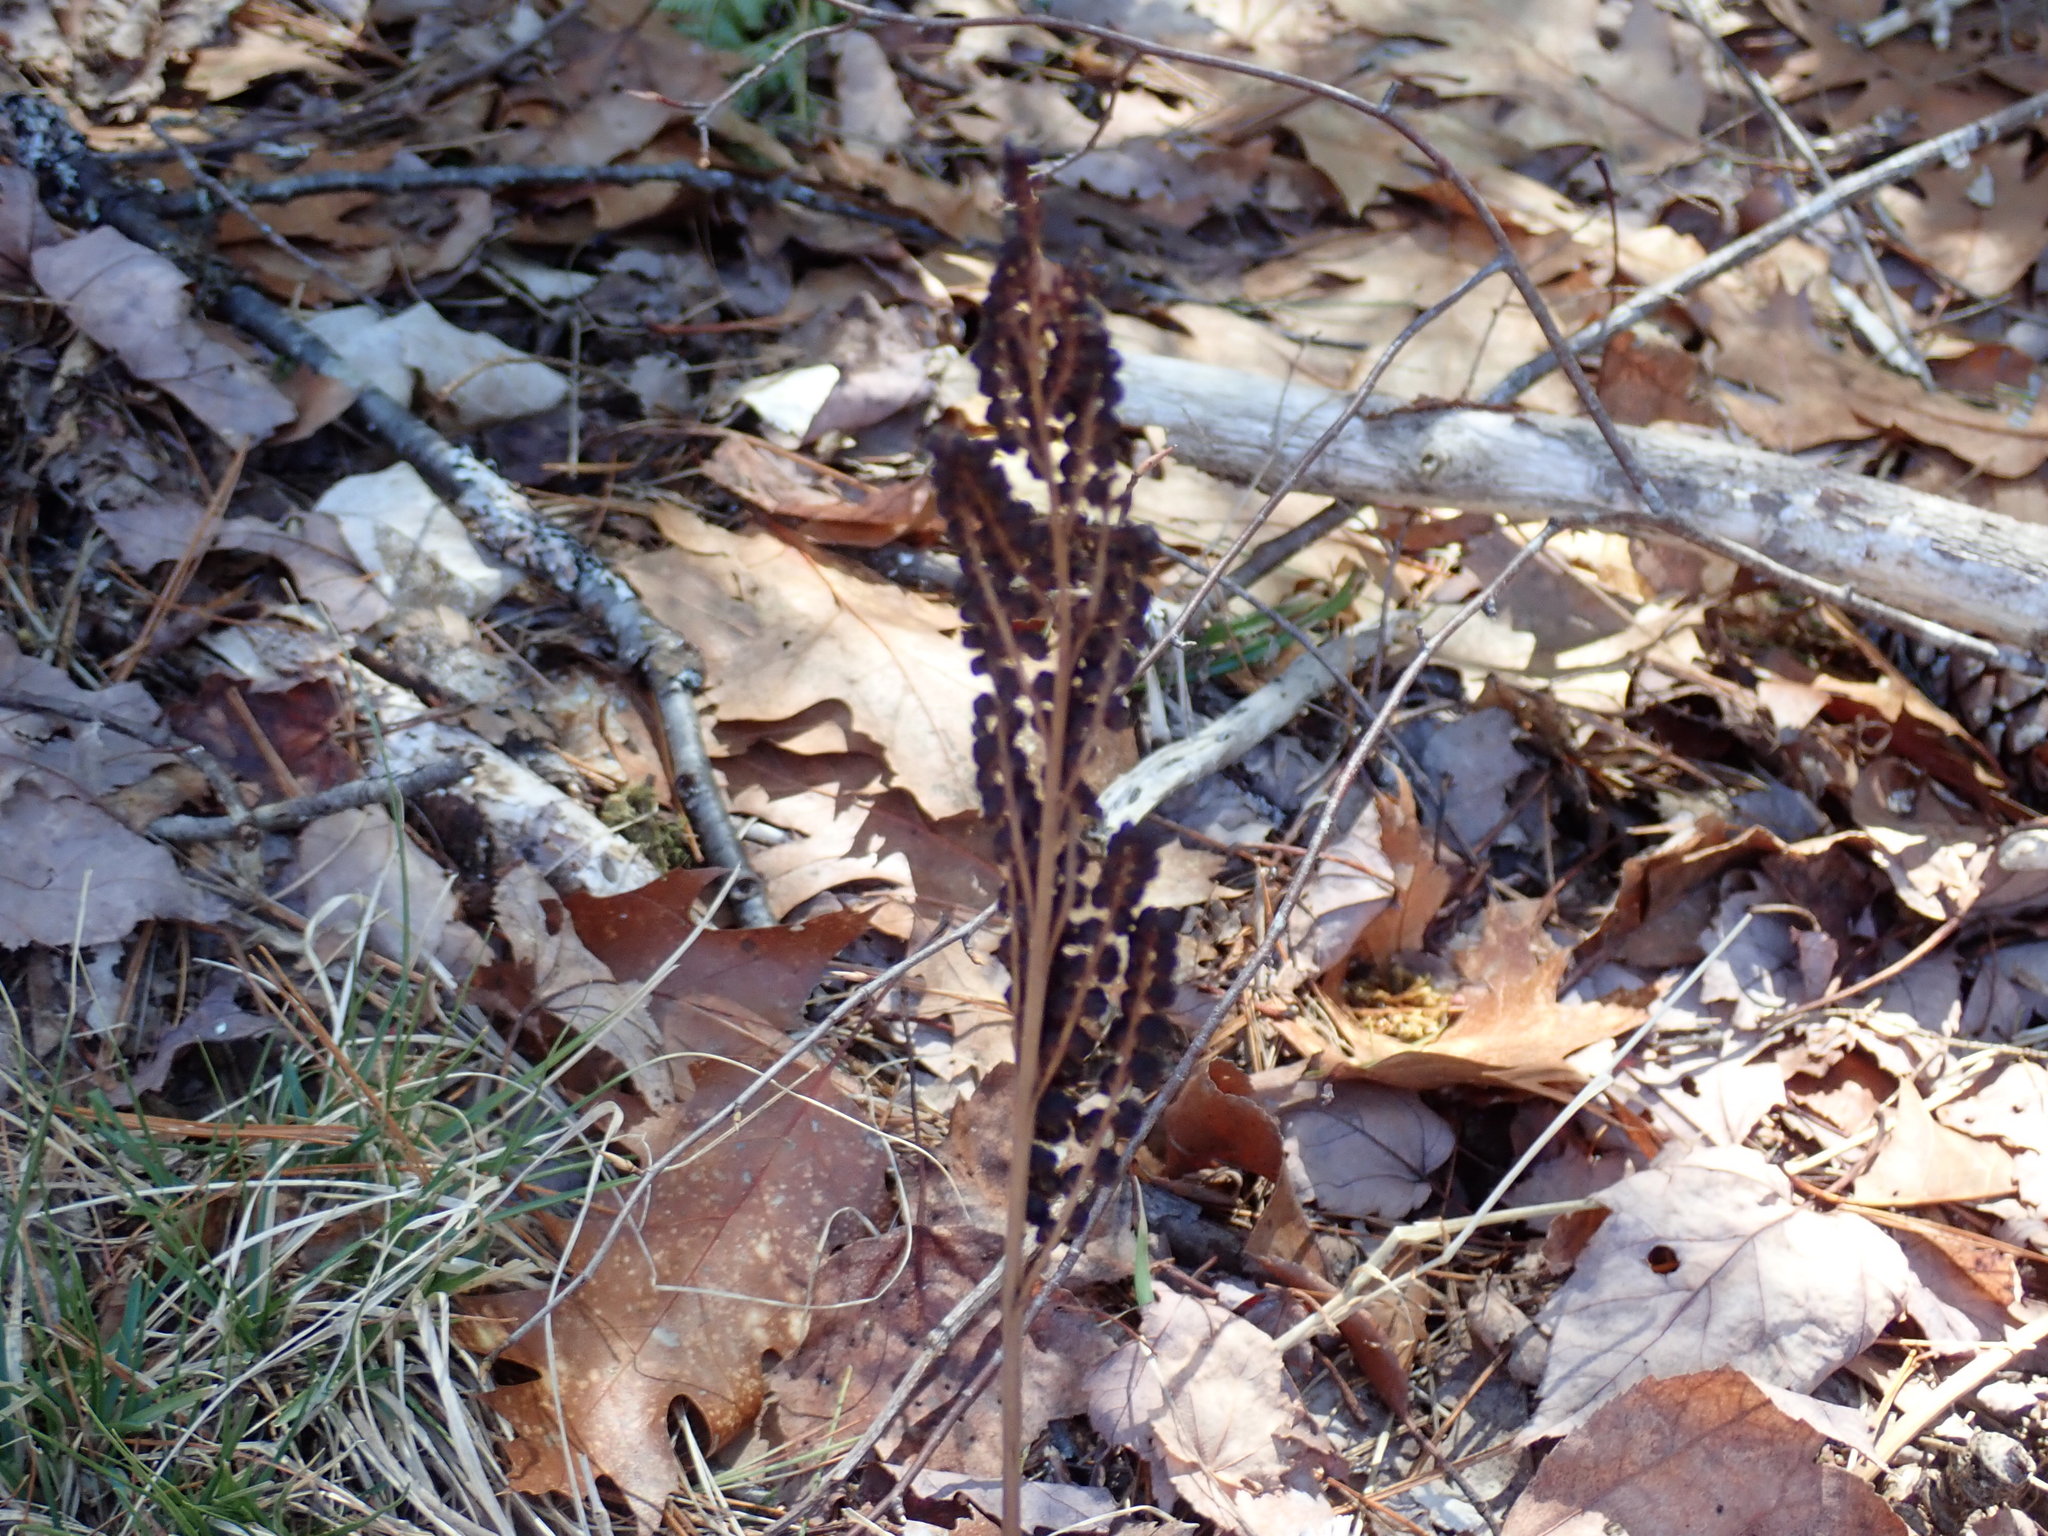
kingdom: Plantae
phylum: Tracheophyta
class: Polypodiopsida
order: Polypodiales
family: Onocleaceae
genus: Onoclea
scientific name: Onoclea sensibilis
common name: Sensitive fern
